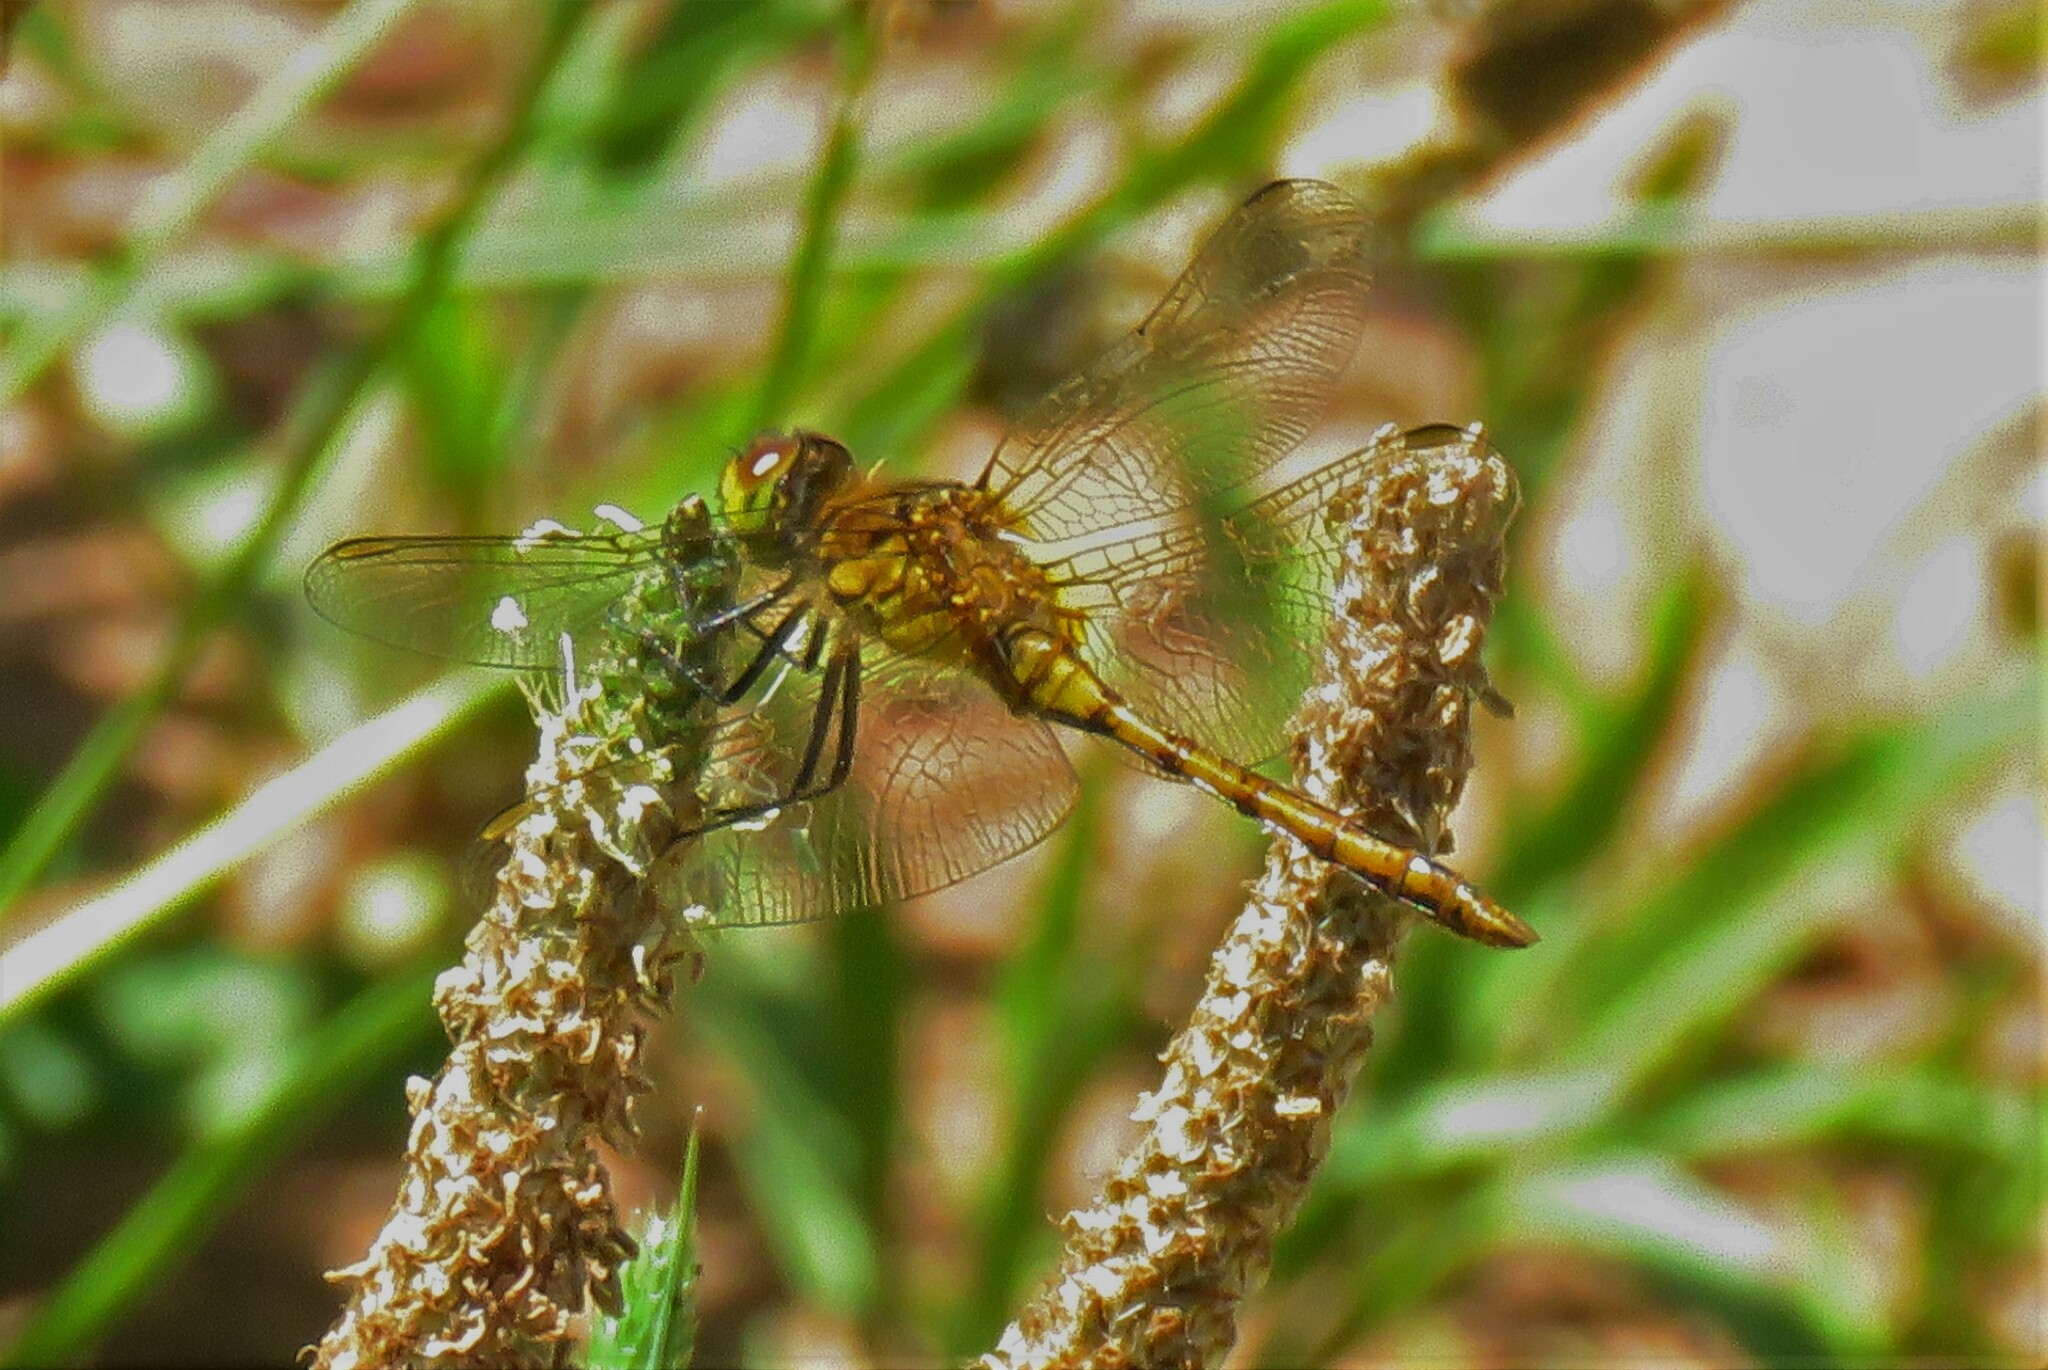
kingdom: Animalia
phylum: Arthropoda
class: Insecta
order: Odonata
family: Libellulidae
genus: Sympetrum
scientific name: Sympetrum costiferum
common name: Saffron-winged meadowhawk
